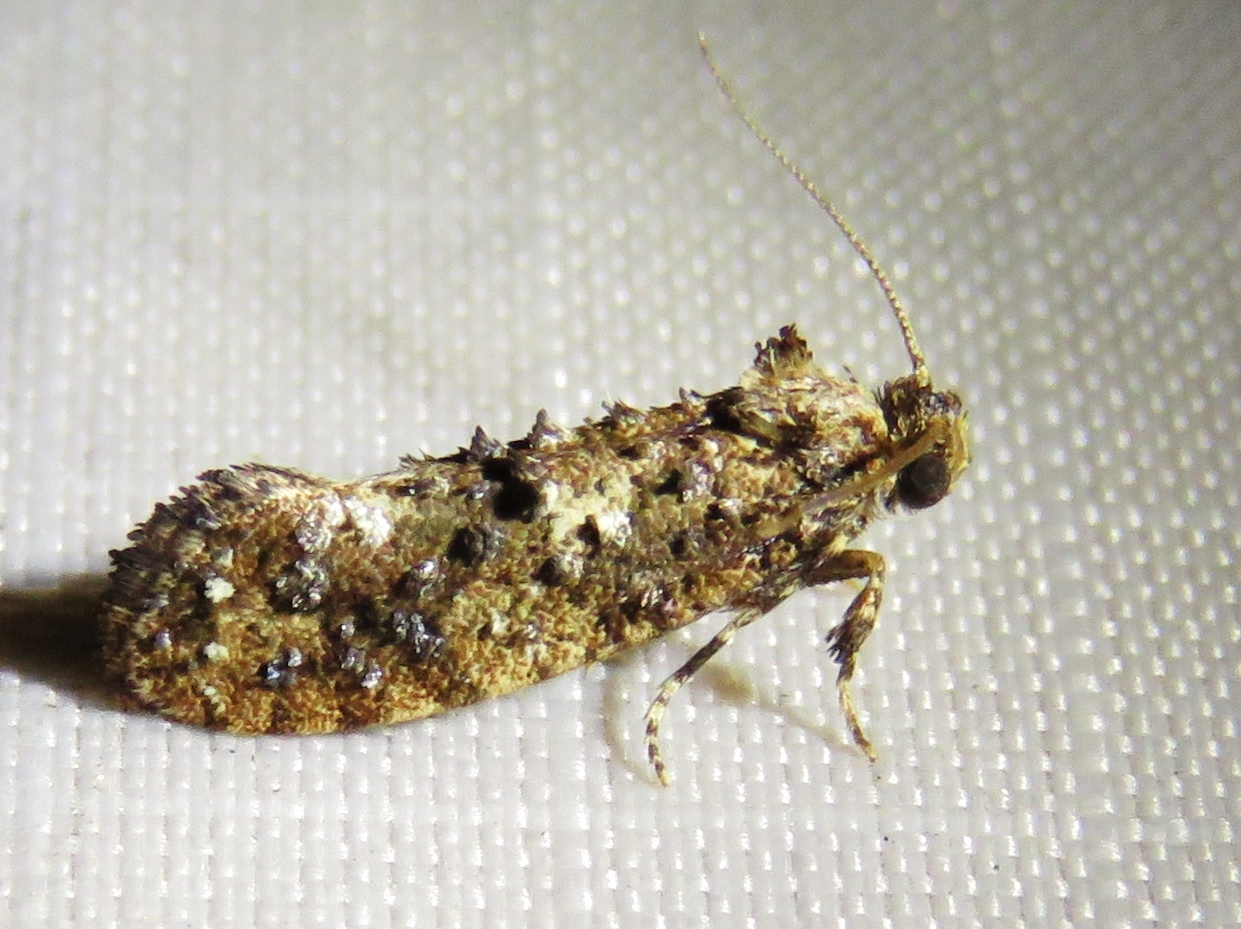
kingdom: Animalia
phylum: Arthropoda
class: Insecta
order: Lepidoptera
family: Tineidae
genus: Acrolophus
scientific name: Acrolophus cressoni
